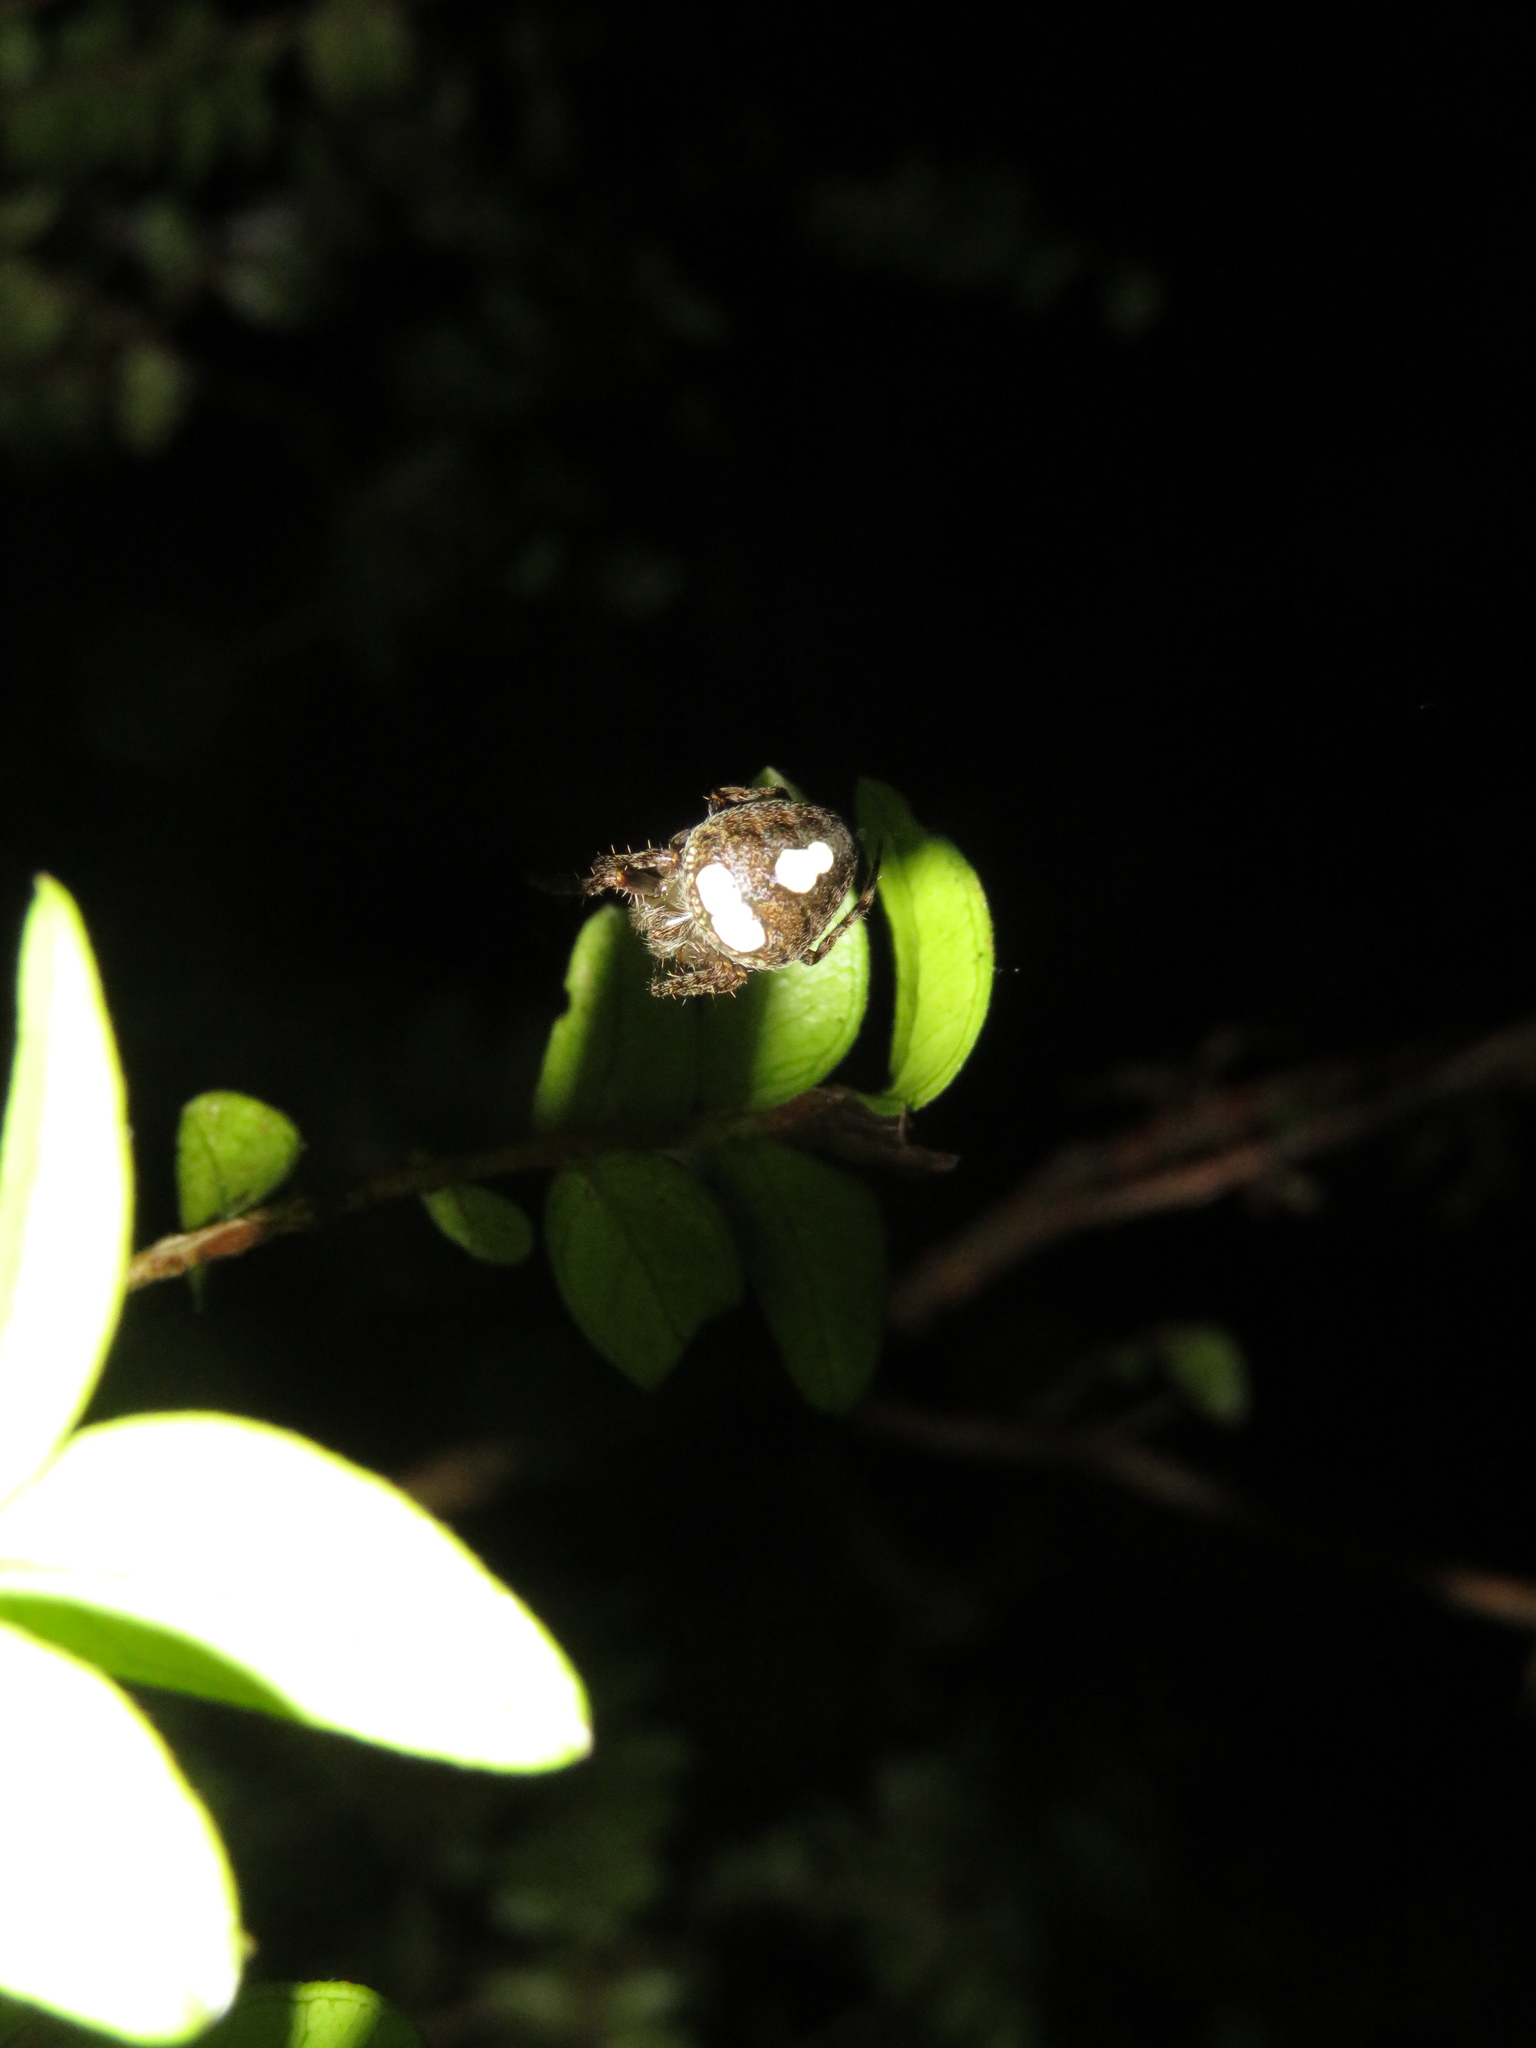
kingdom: Animalia
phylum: Arthropoda
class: Arachnida
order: Araneae
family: Araneidae
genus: Zealaranea
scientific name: Zealaranea trinotata
